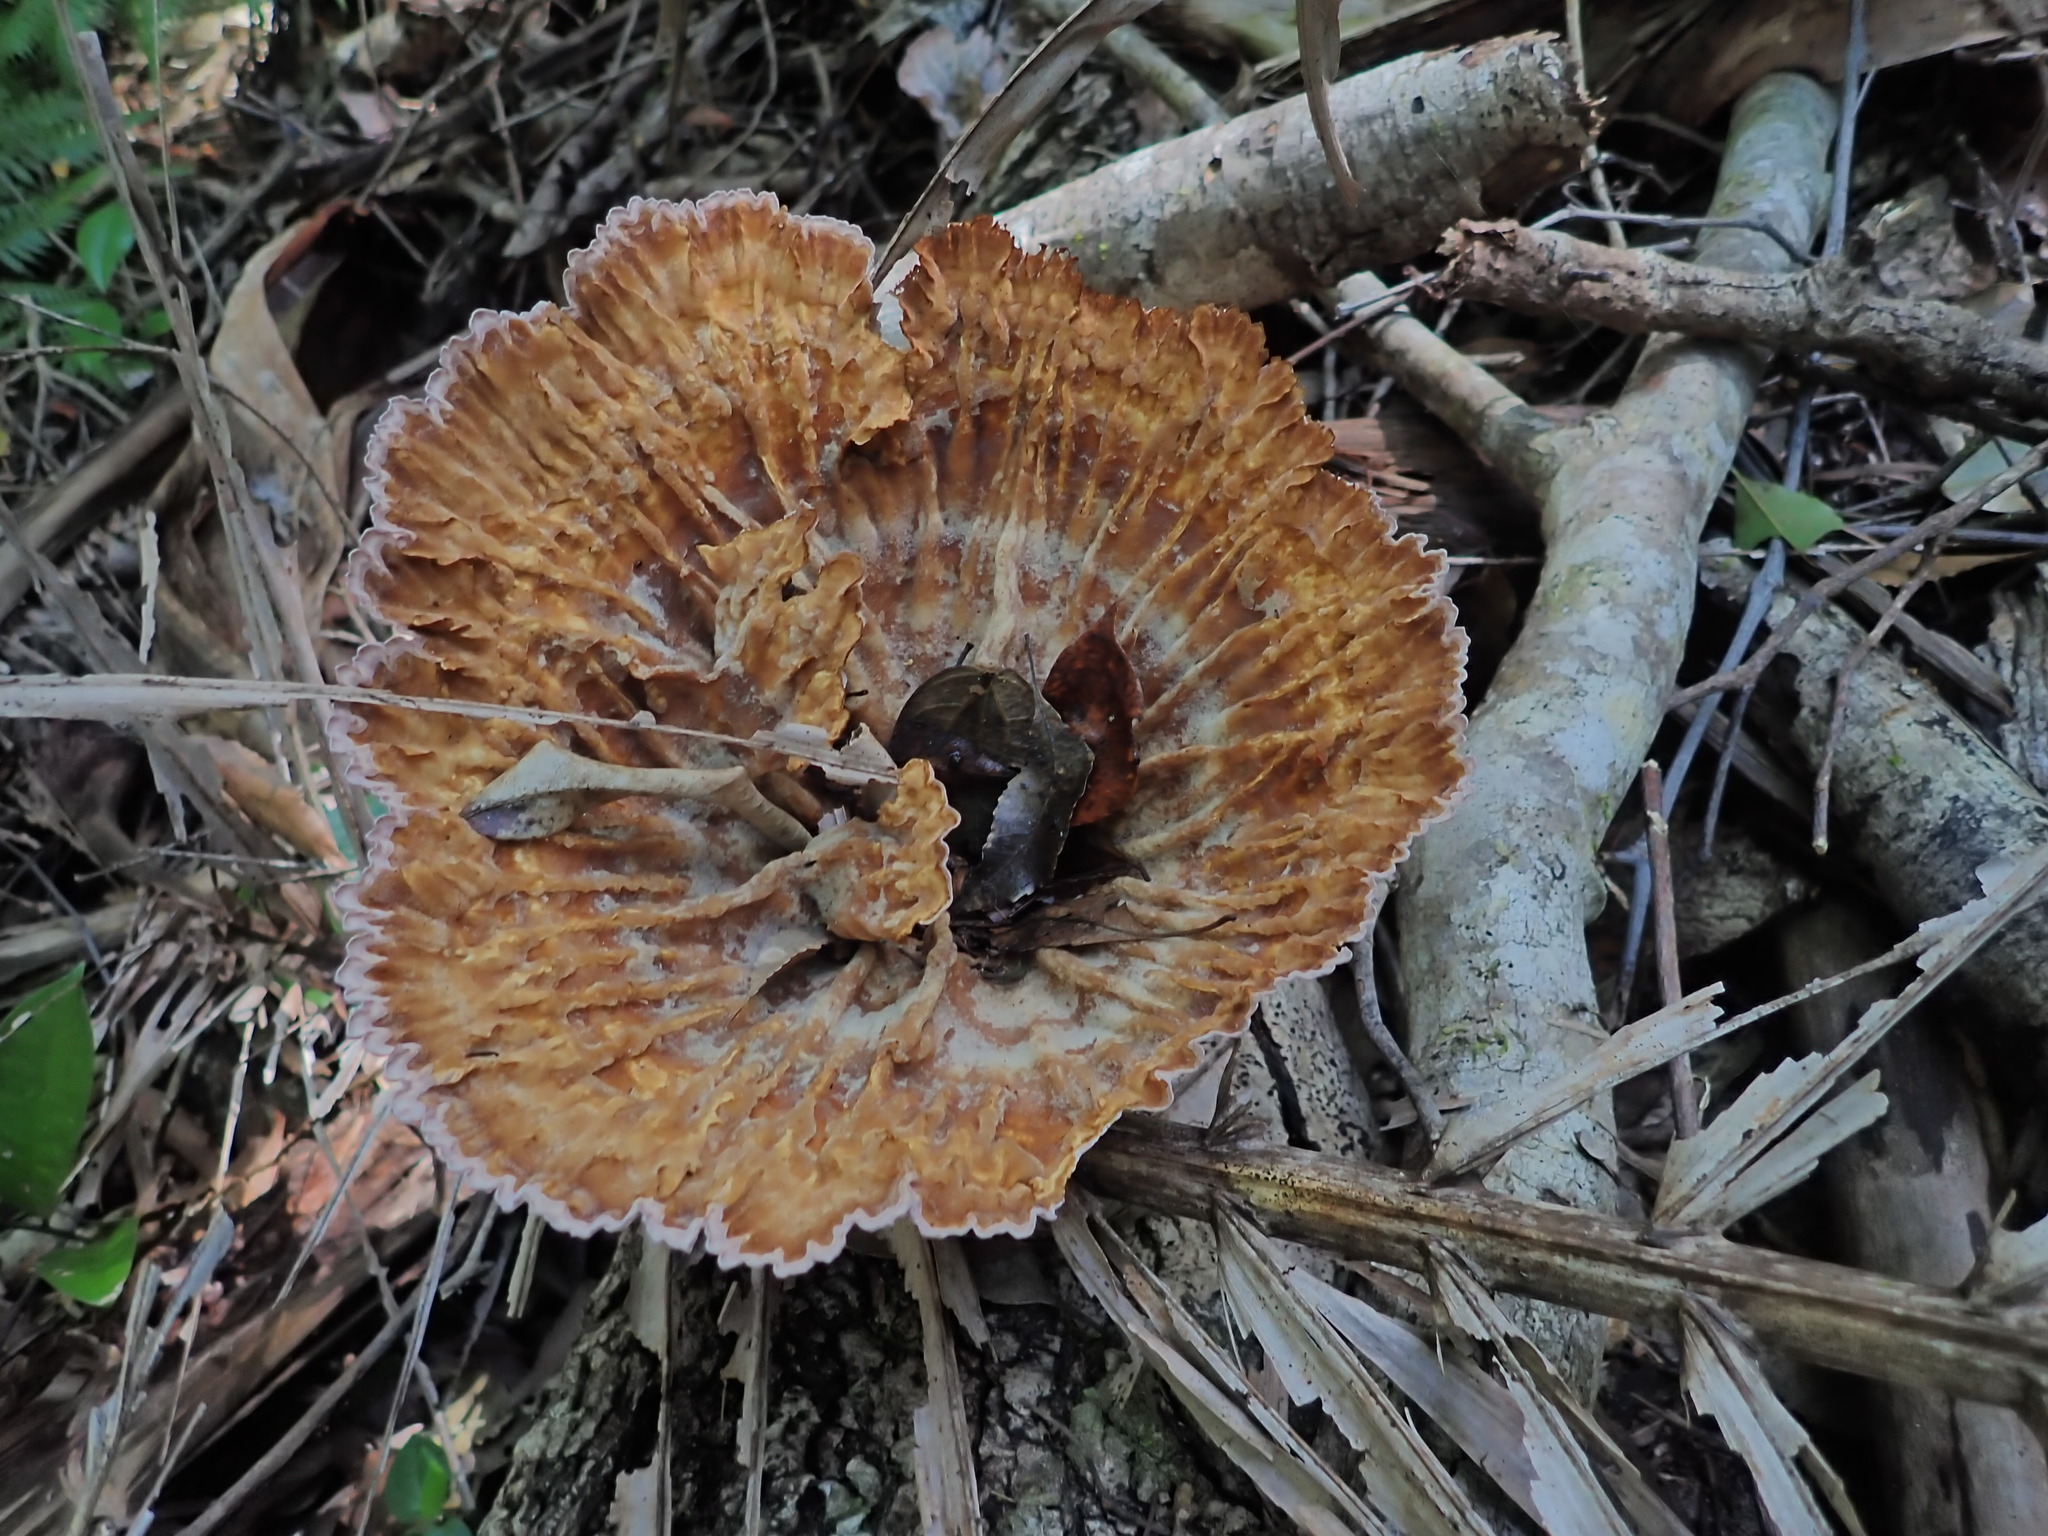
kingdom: Fungi
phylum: Basidiomycota
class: Agaricomycetes
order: Polyporales
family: Panaceae
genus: Cymatoderma
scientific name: Cymatoderma elegans
